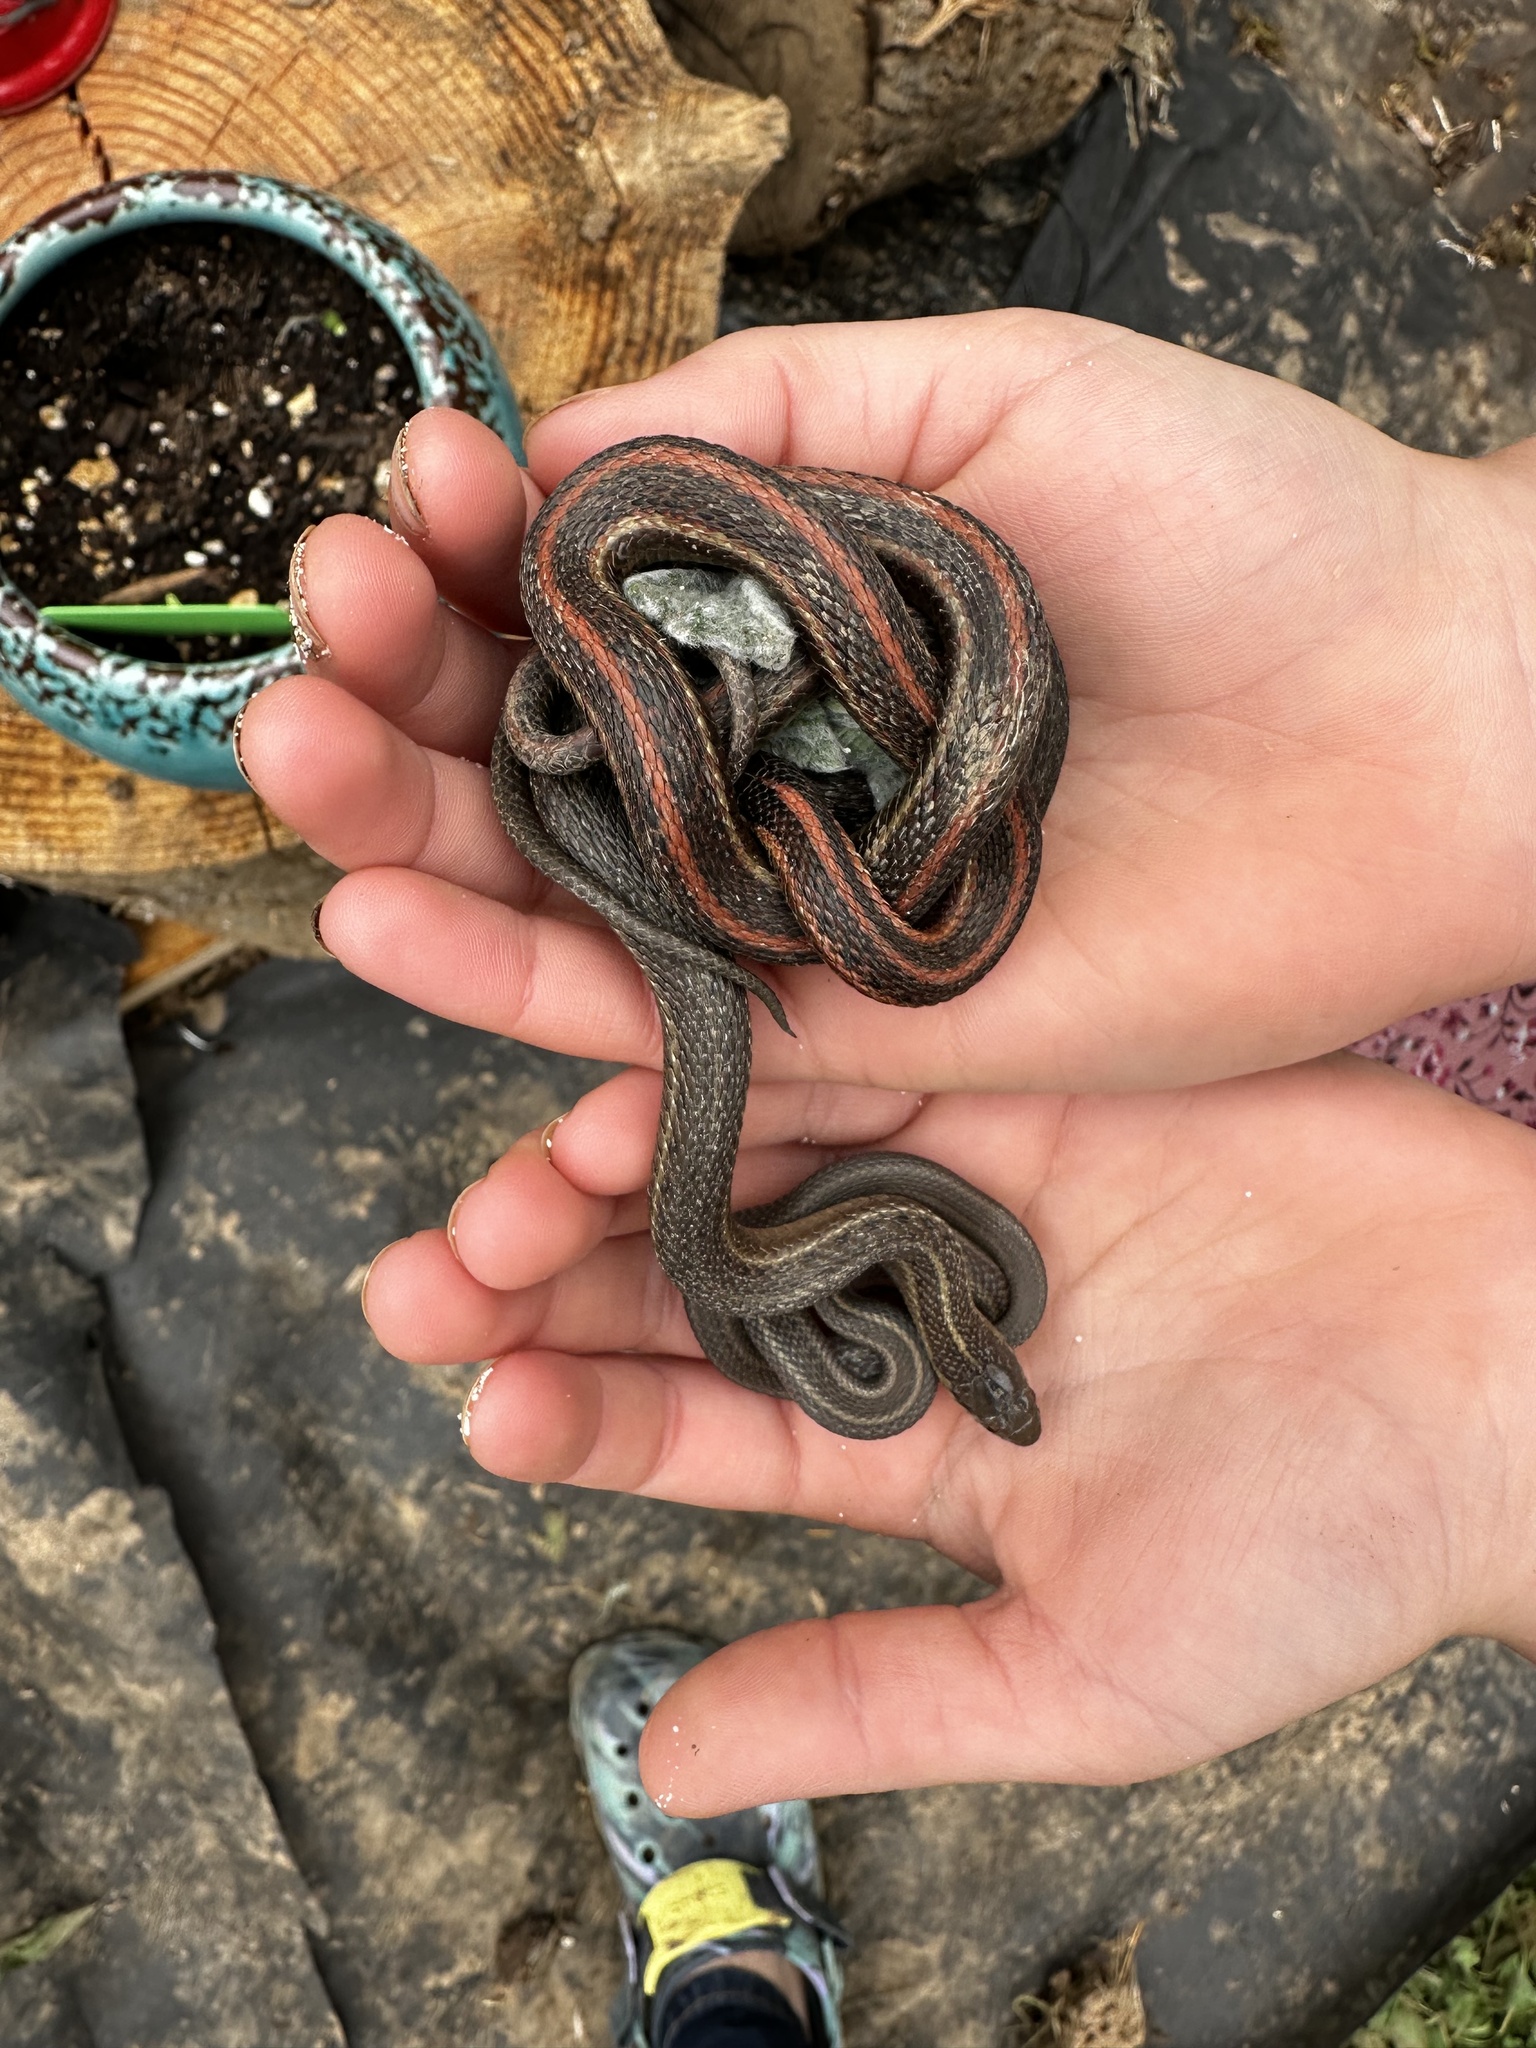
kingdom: Animalia
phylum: Chordata
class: Squamata
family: Colubridae
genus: Thamnophis
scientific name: Thamnophis ordinoides
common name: Northwestern garter snake
